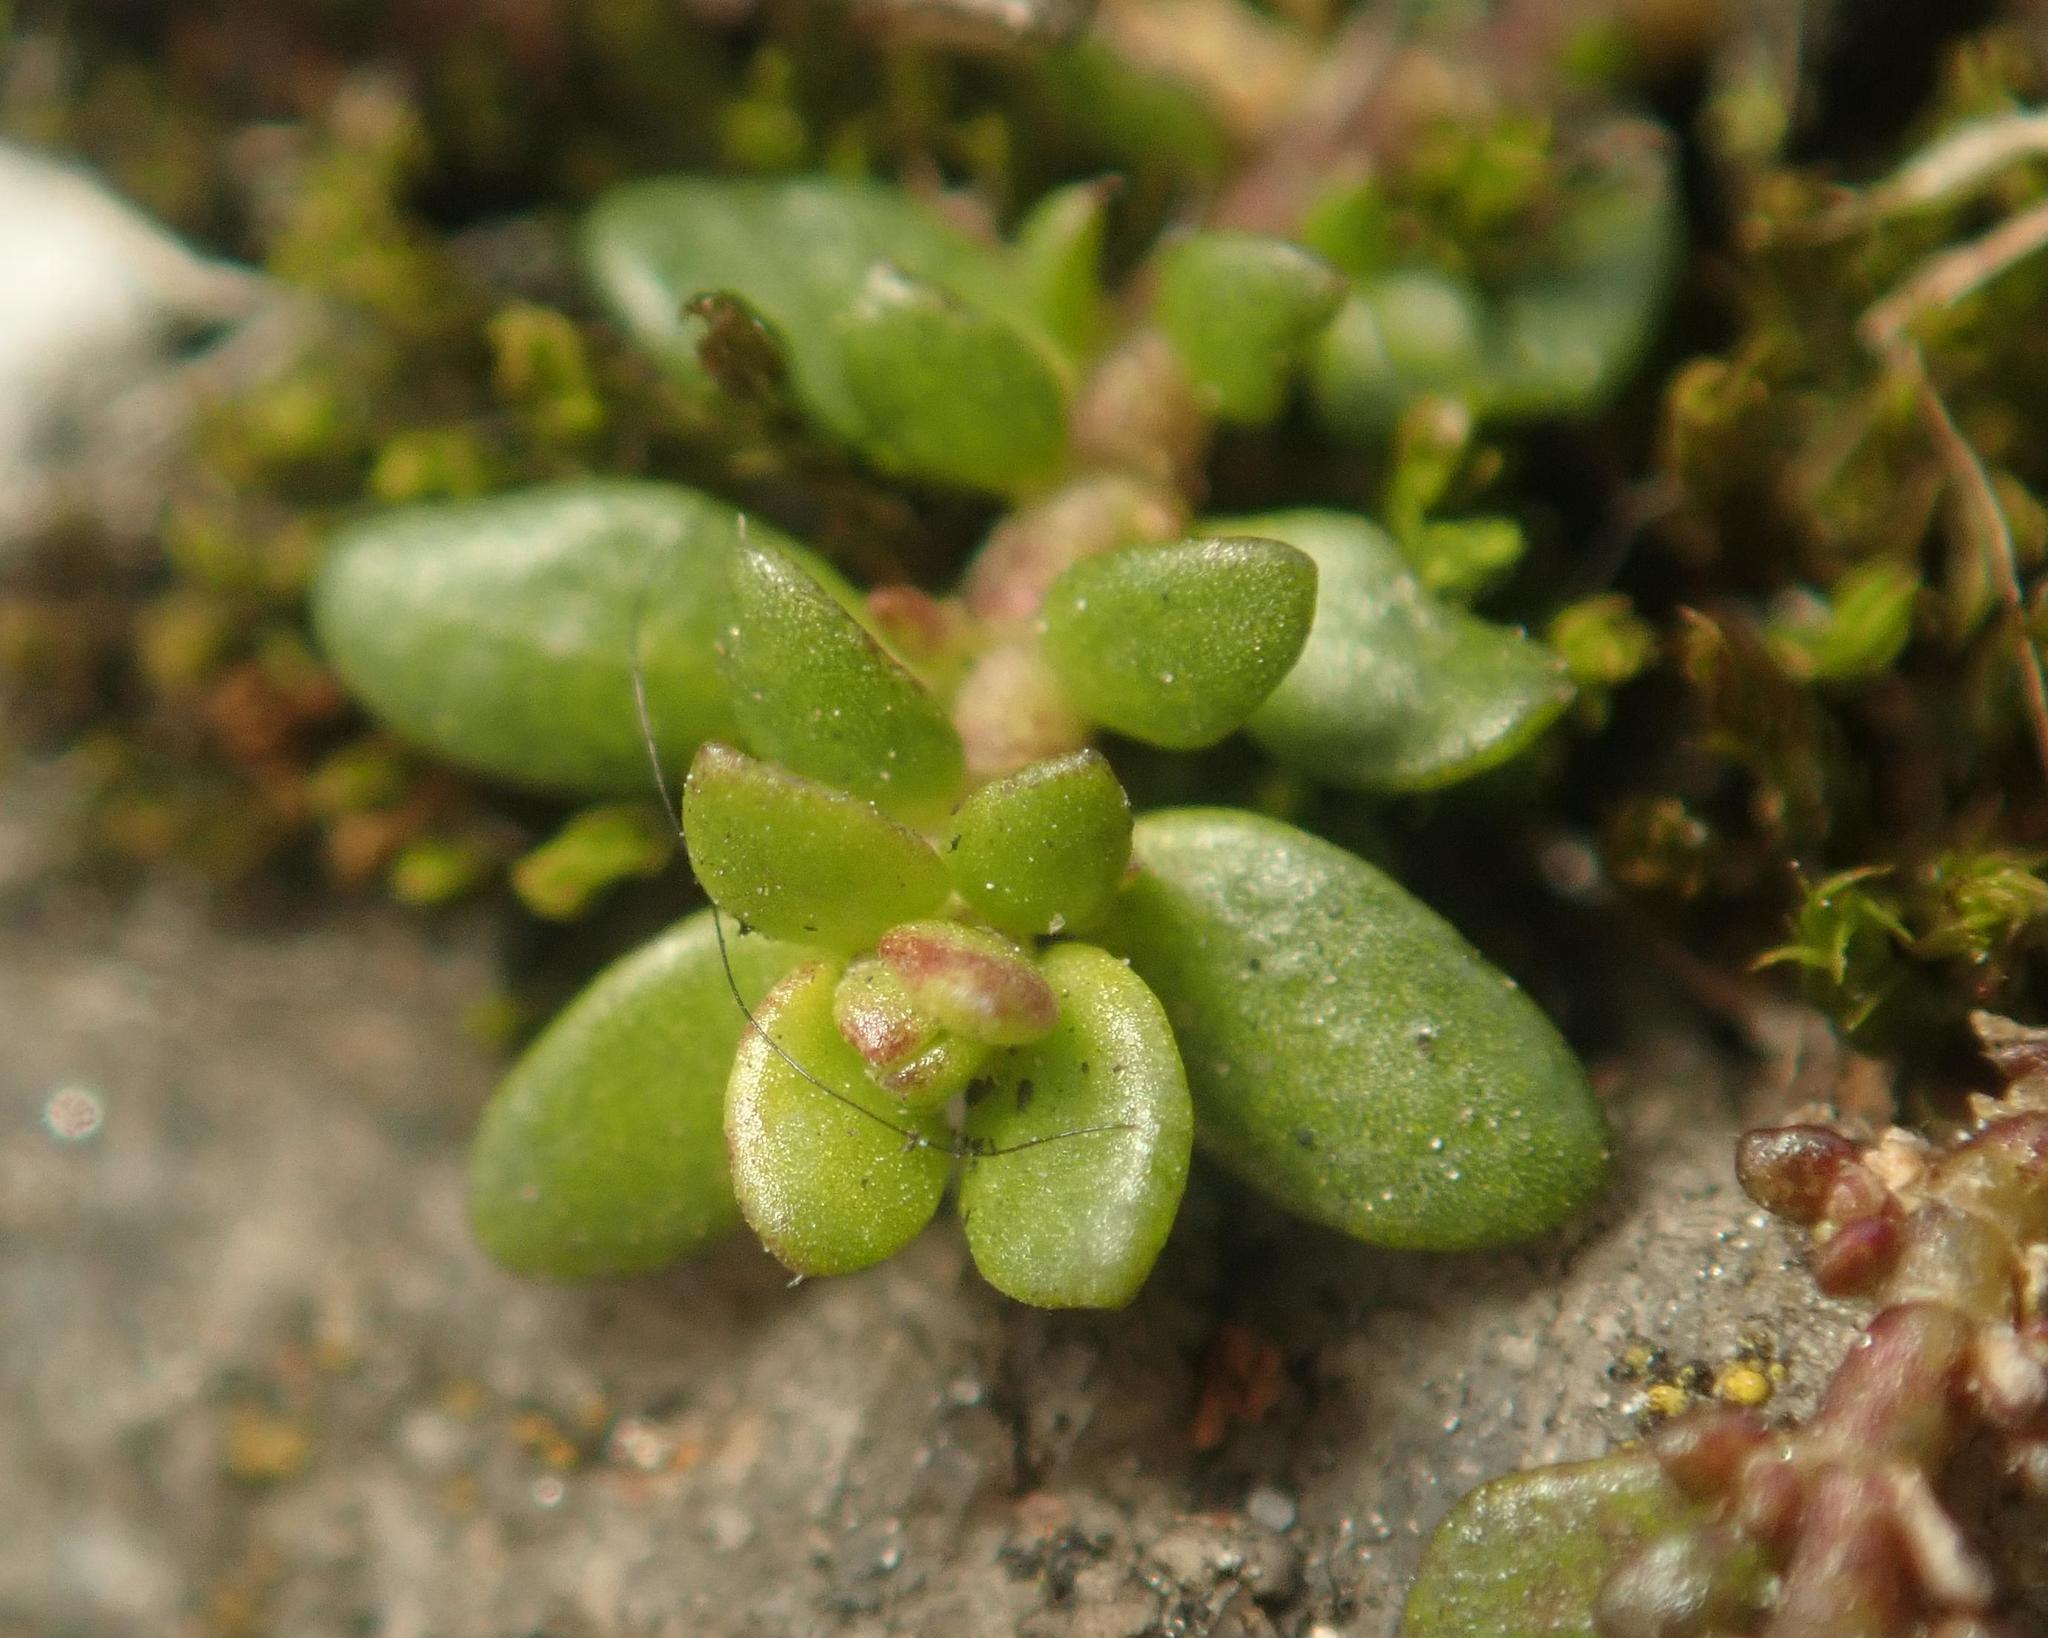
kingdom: Plantae
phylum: Tracheophyta
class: Magnoliopsida
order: Caryophyllales
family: Caryophyllaceae
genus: Herniaria
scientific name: Herniaria glabra
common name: Smooth rupturewort
